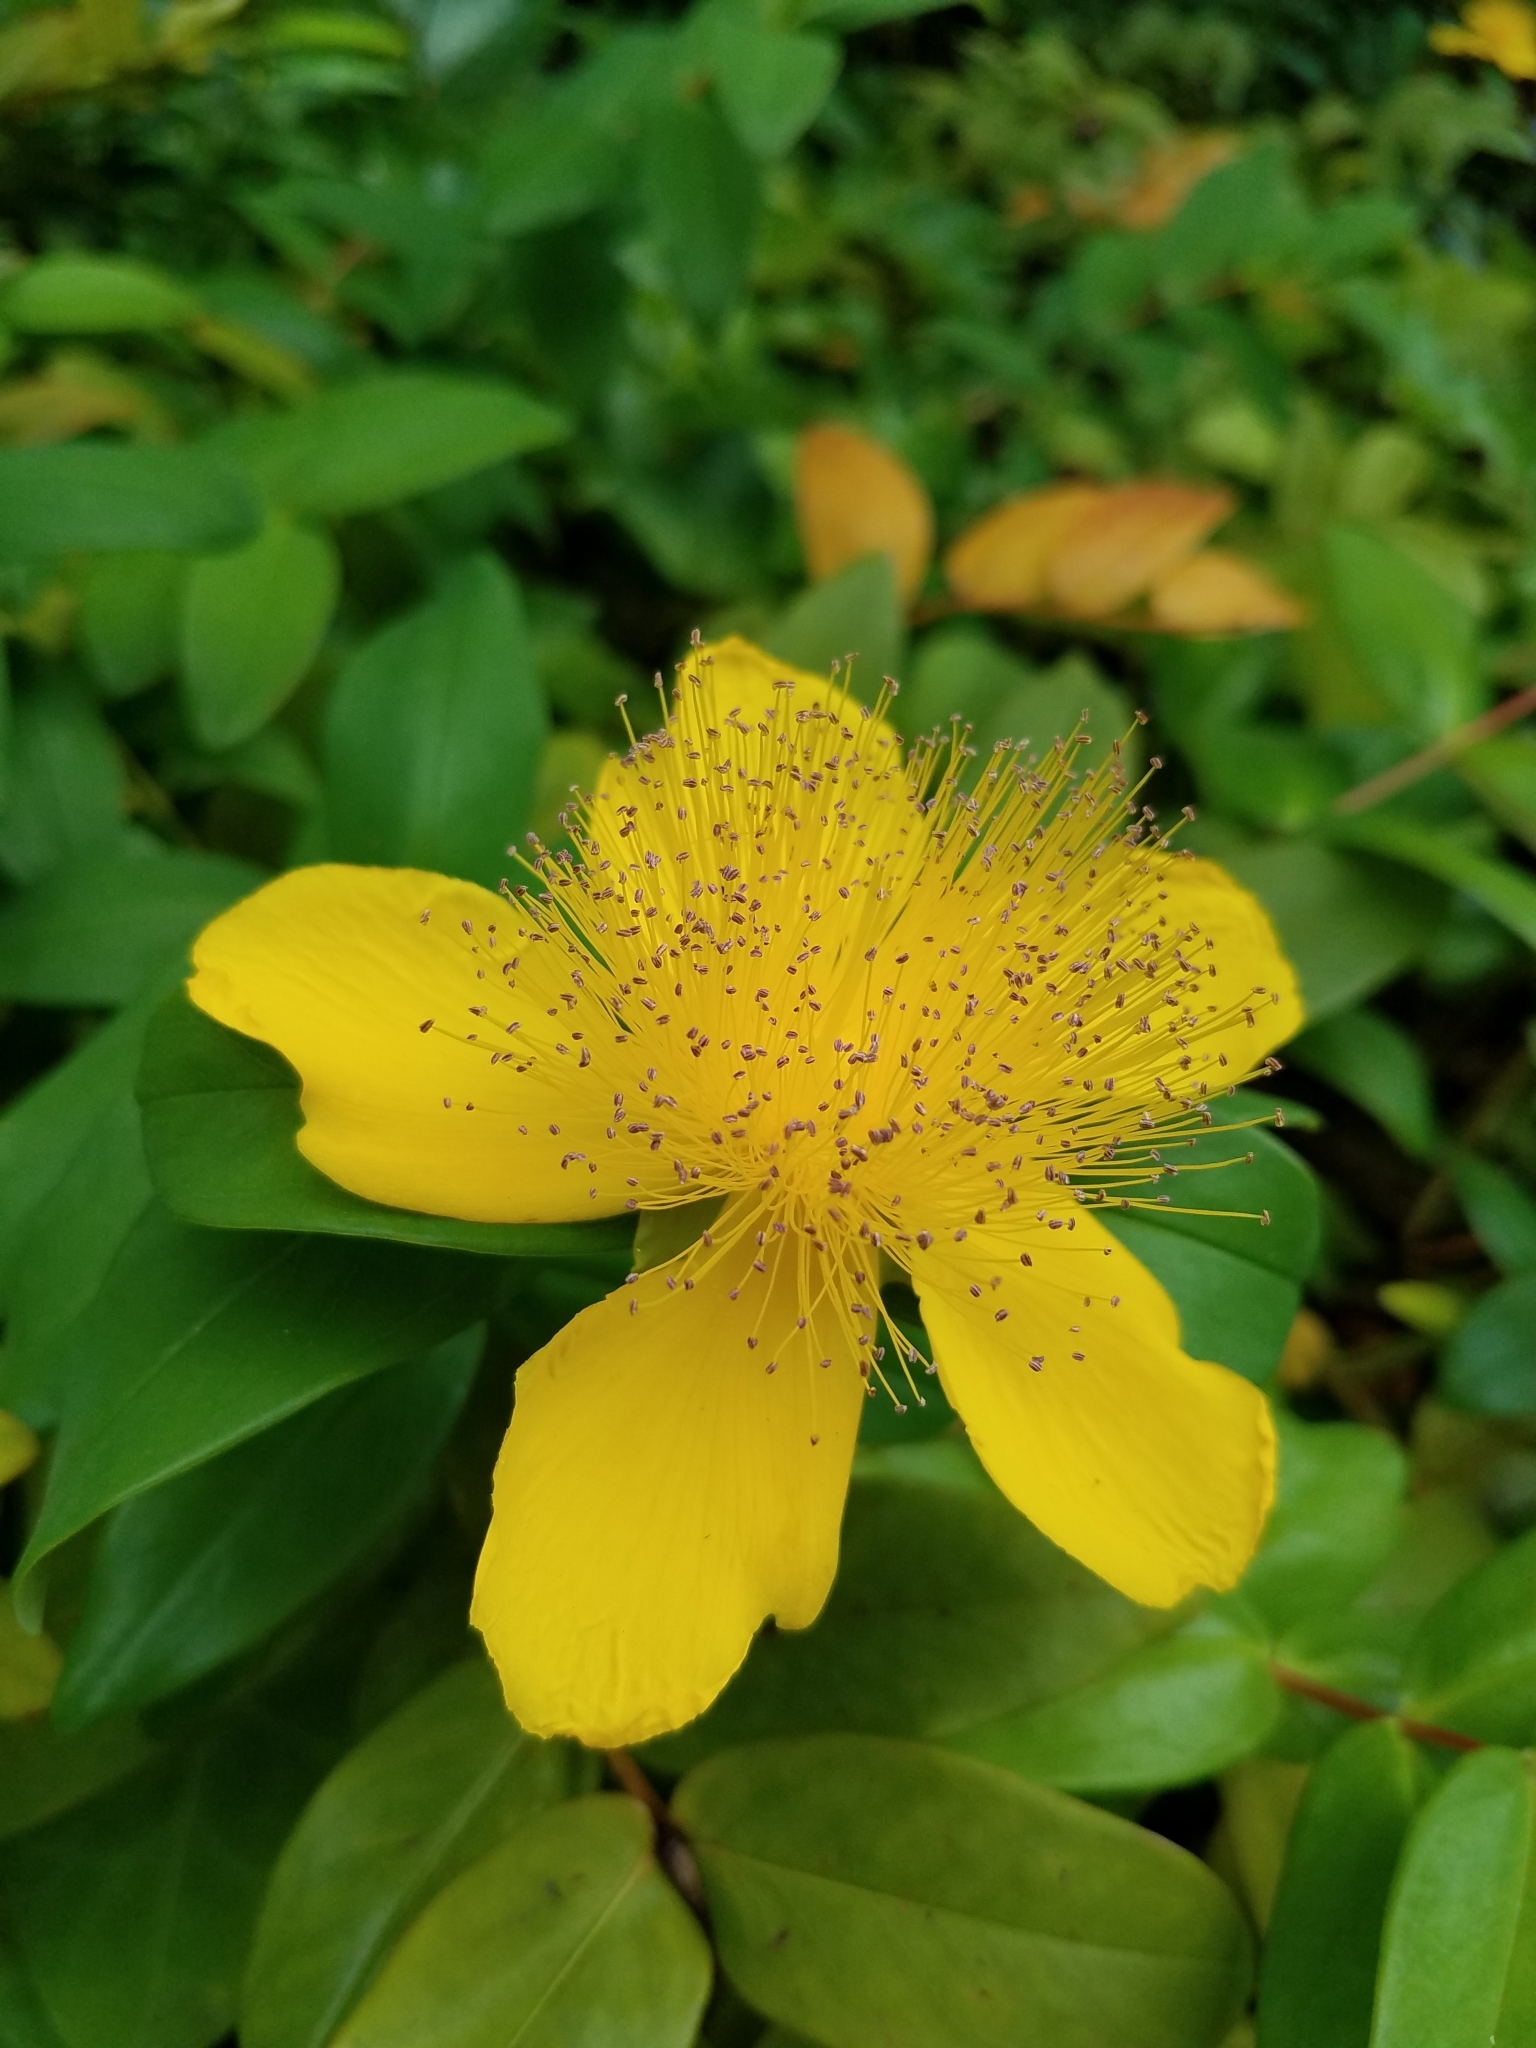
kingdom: Plantae
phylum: Tracheophyta
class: Magnoliopsida
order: Malpighiales
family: Hypericaceae
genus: Hypericum
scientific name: Hypericum calycinum
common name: Rose-of-sharon
